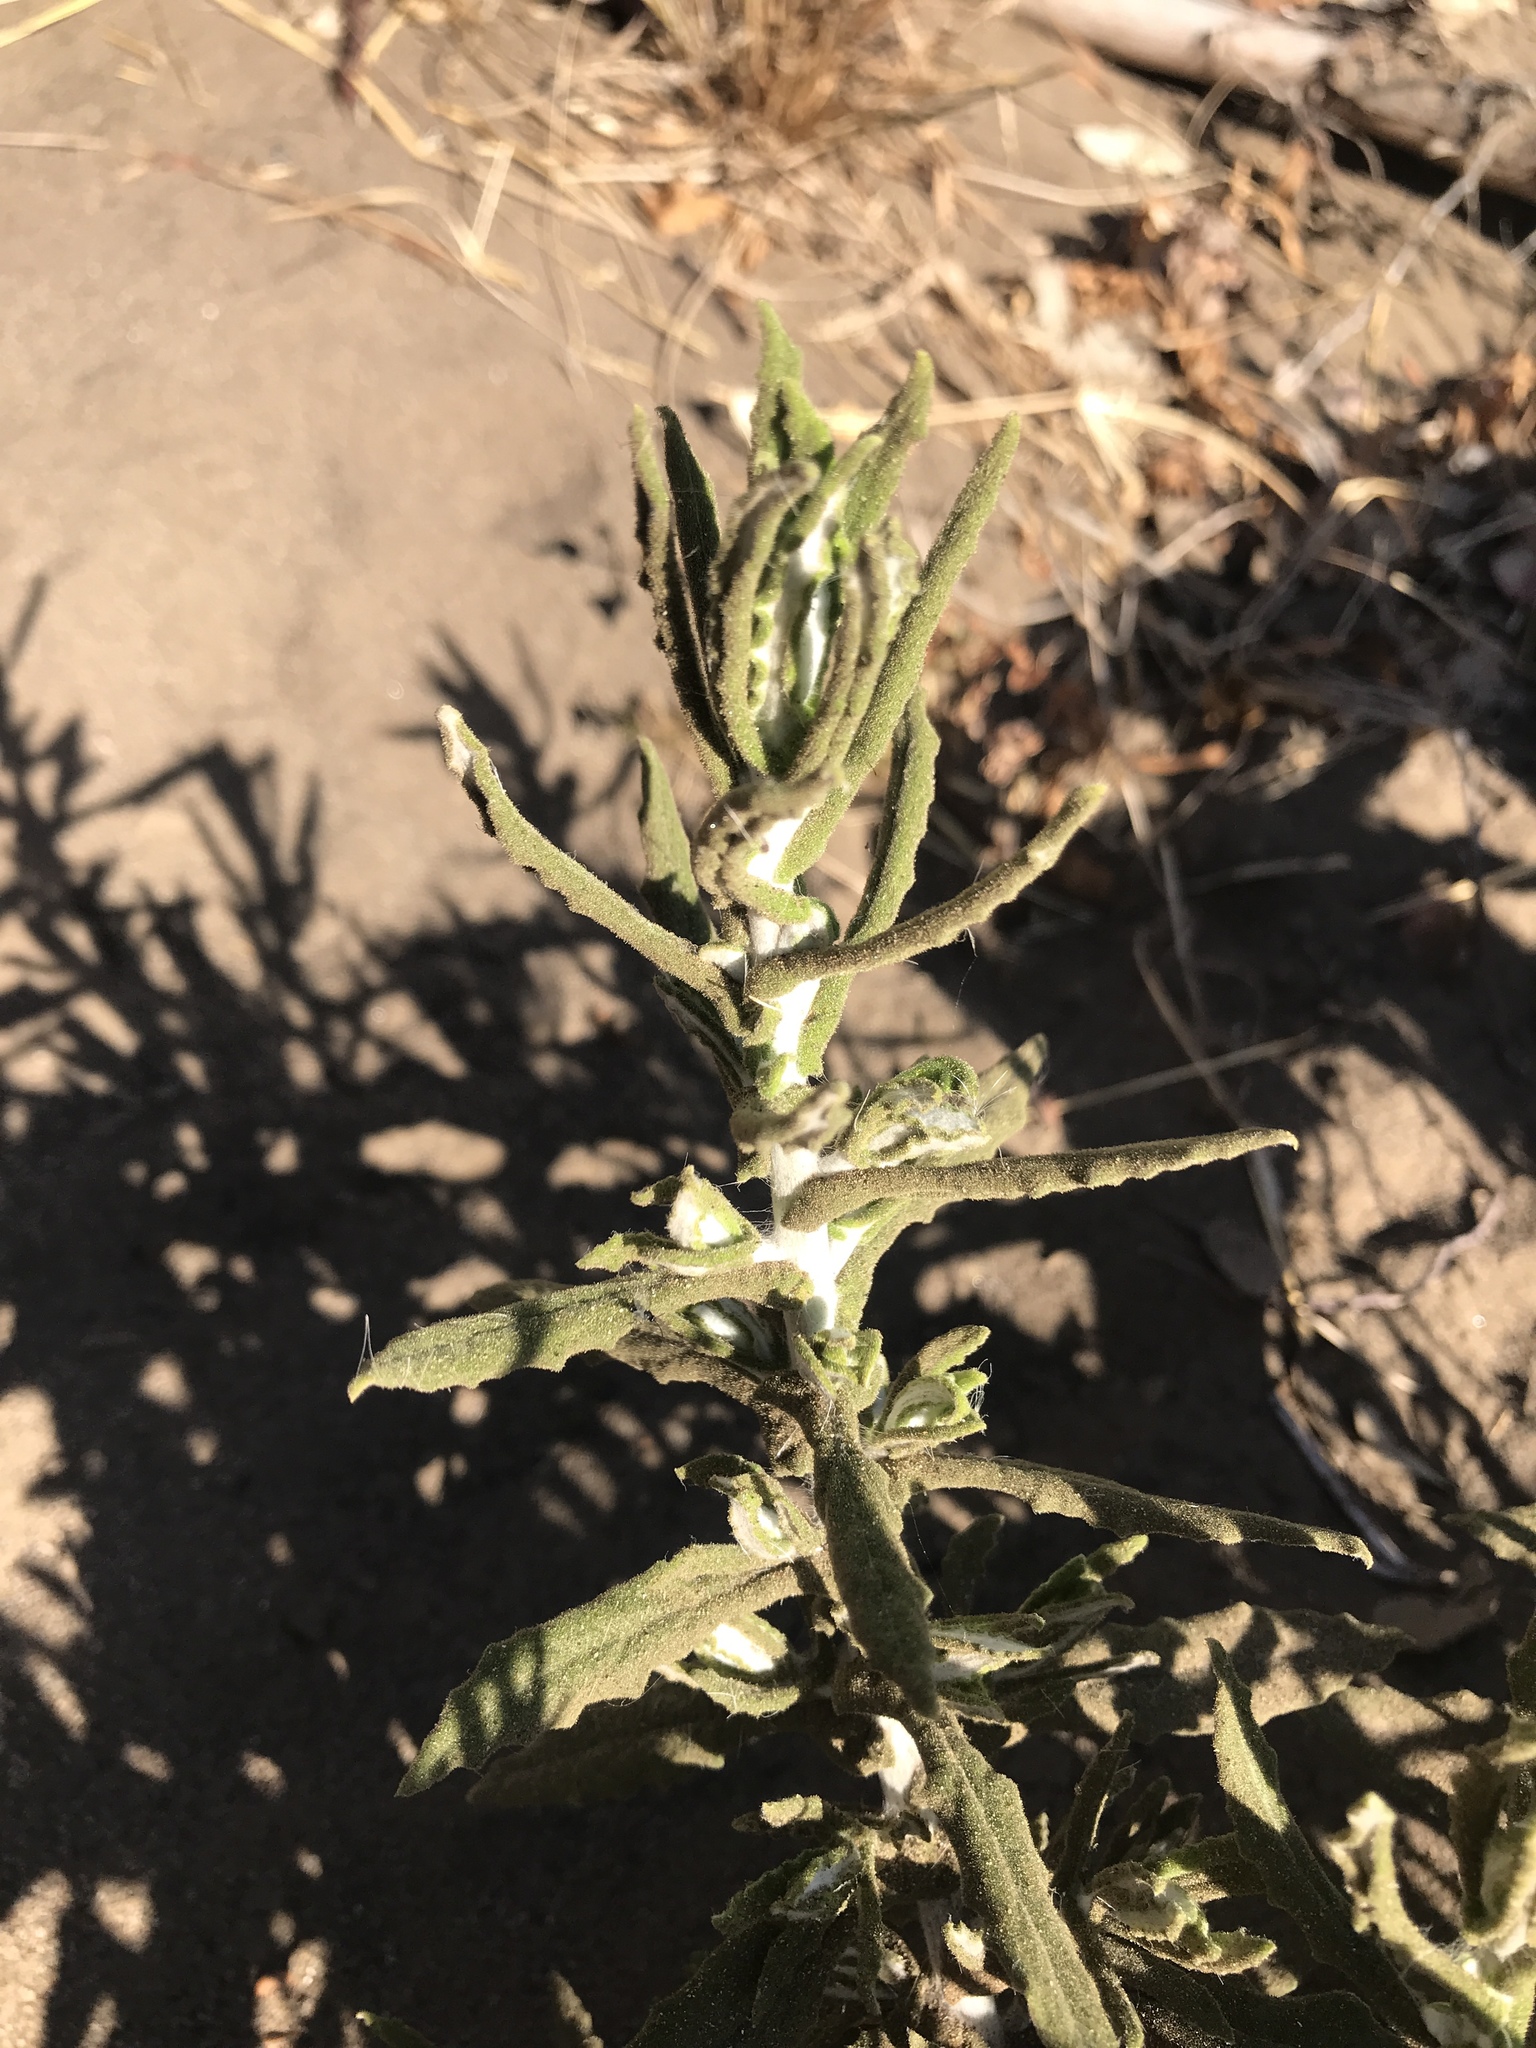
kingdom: Plantae
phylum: Tracheophyta
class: Magnoliopsida
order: Asterales
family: Asteraceae
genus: Pseudognaphalium
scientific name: Pseudognaphalium biolettii
